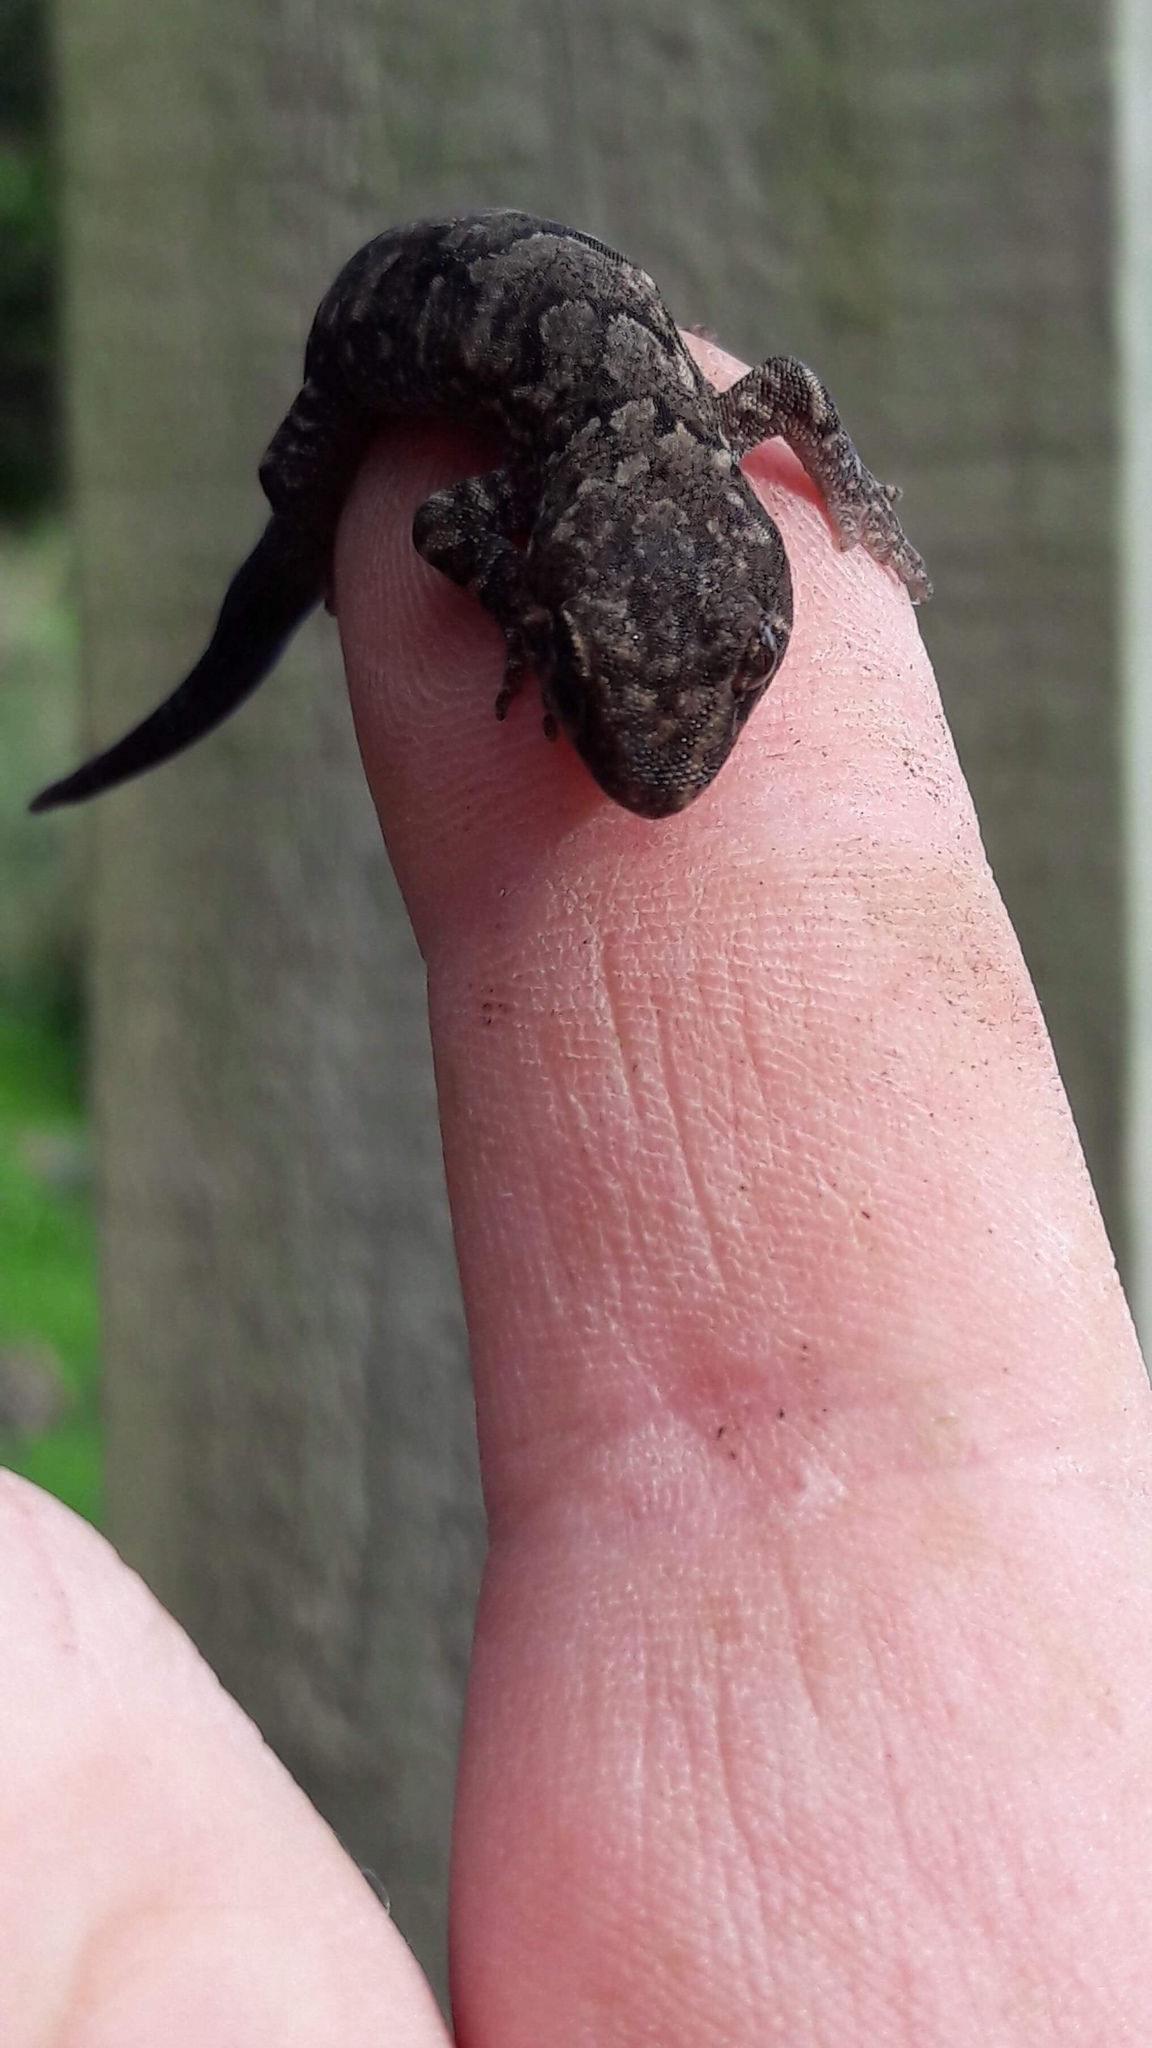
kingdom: Animalia
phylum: Chordata
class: Squamata
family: Diplodactylidae
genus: Woodworthia
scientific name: Woodworthia maculata
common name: Raukawa gecko
